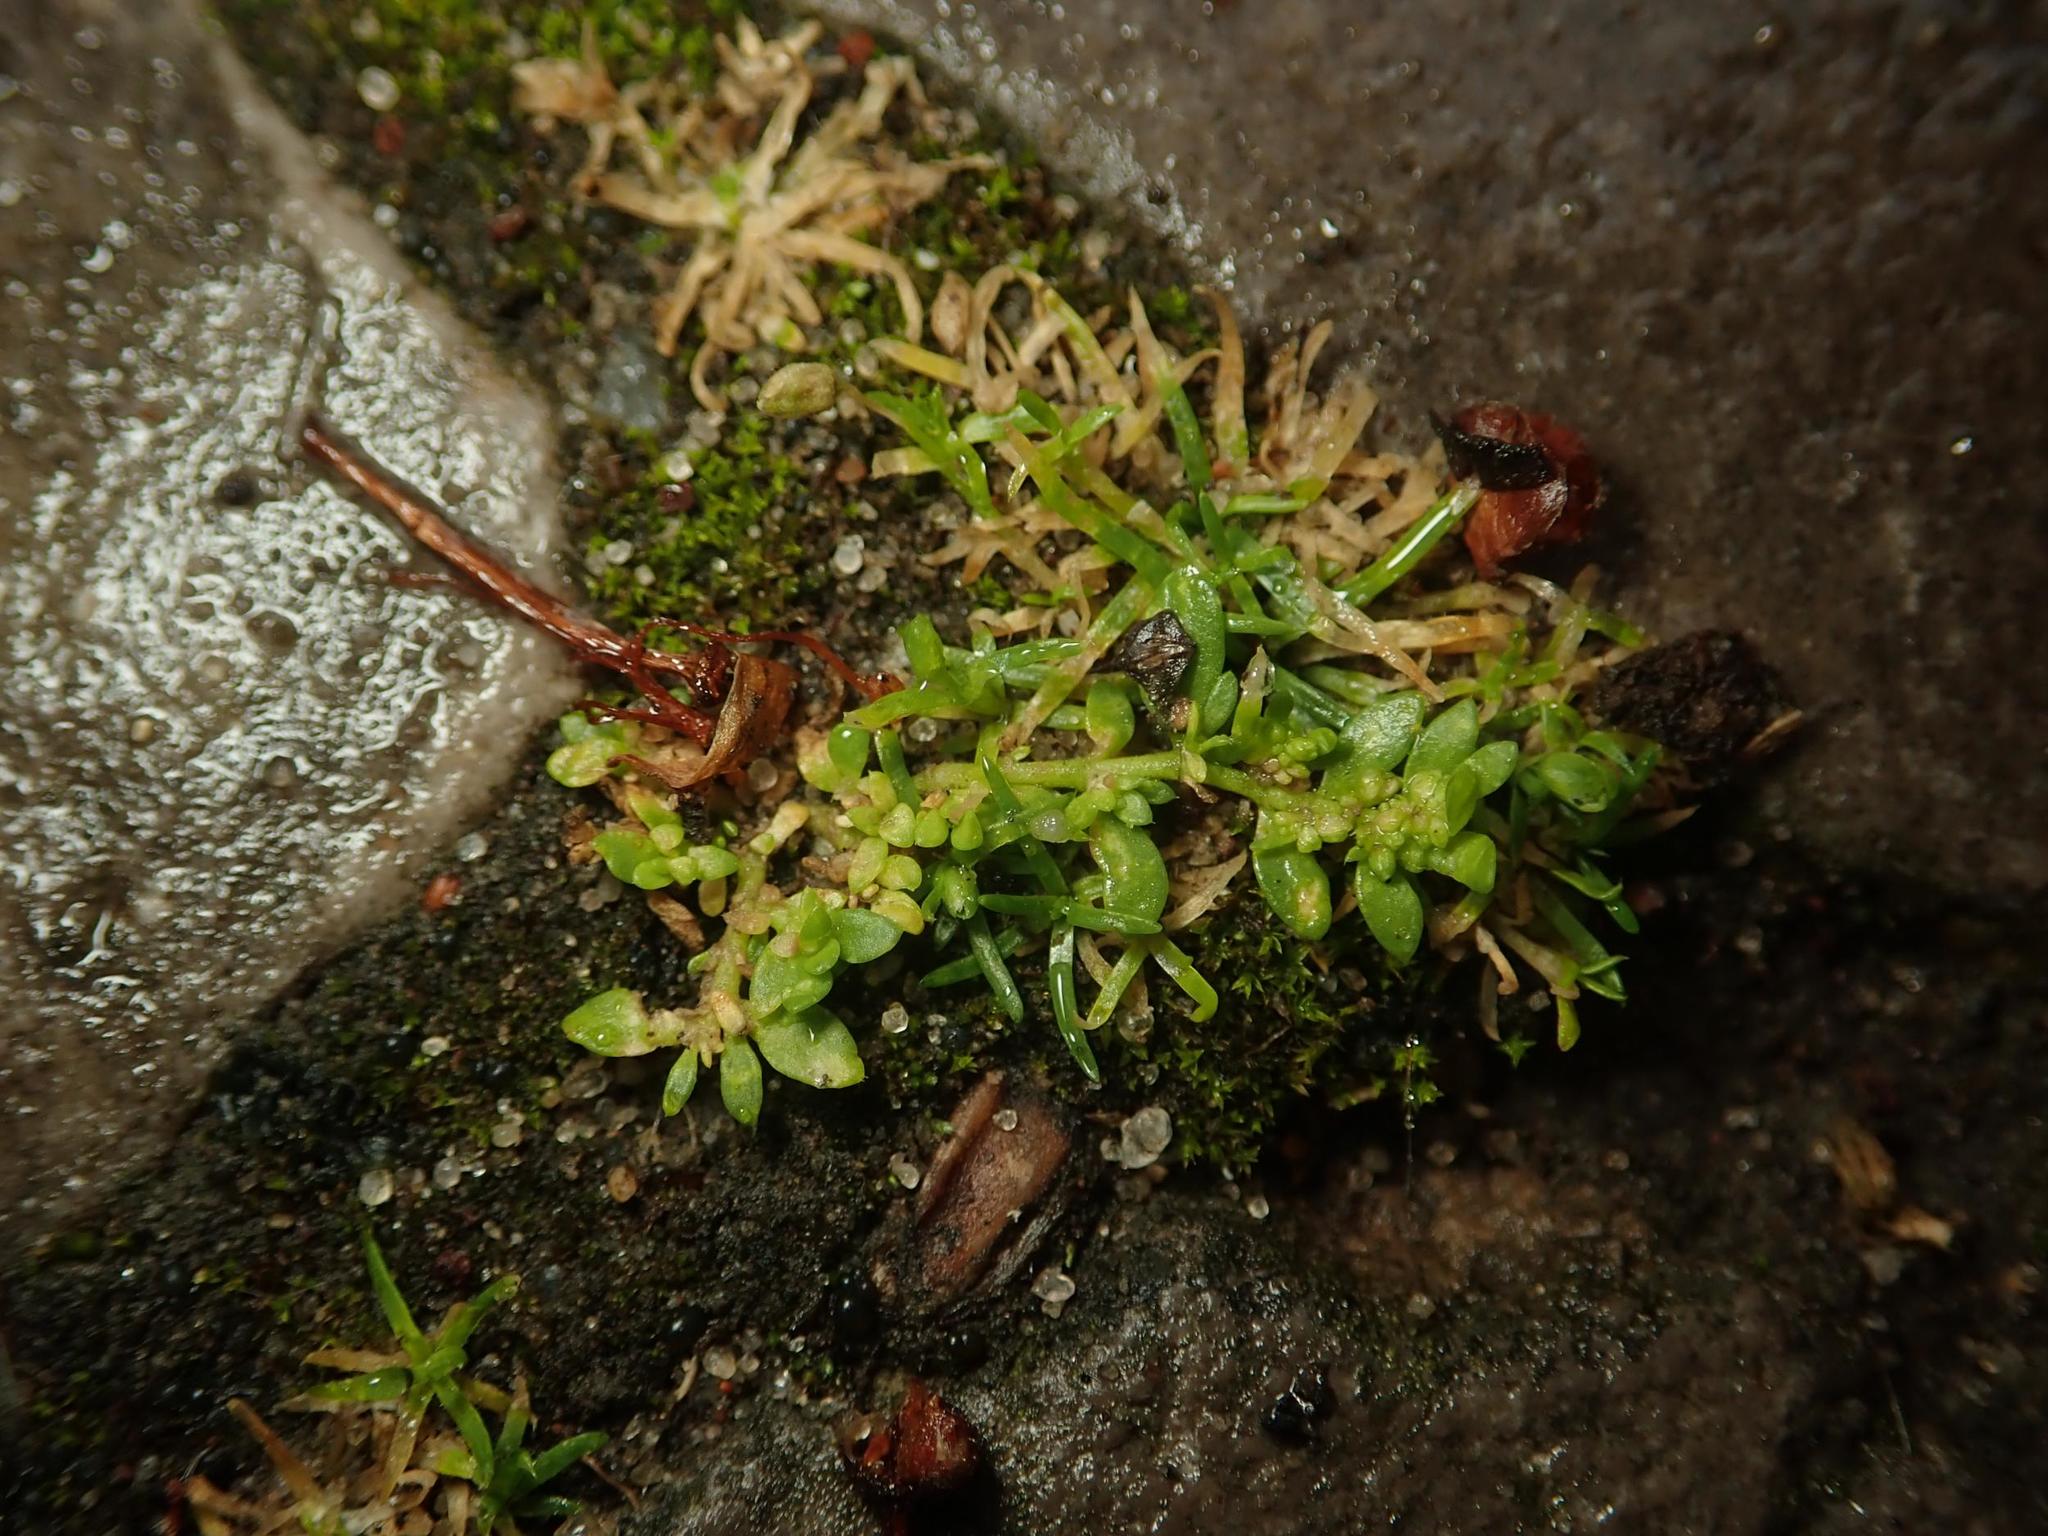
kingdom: Plantae
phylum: Tracheophyta
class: Magnoliopsida
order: Caryophyllales
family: Caryophyllaceae
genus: Herniaria
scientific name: Herniaria glabra
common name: Smooth rupturewort
